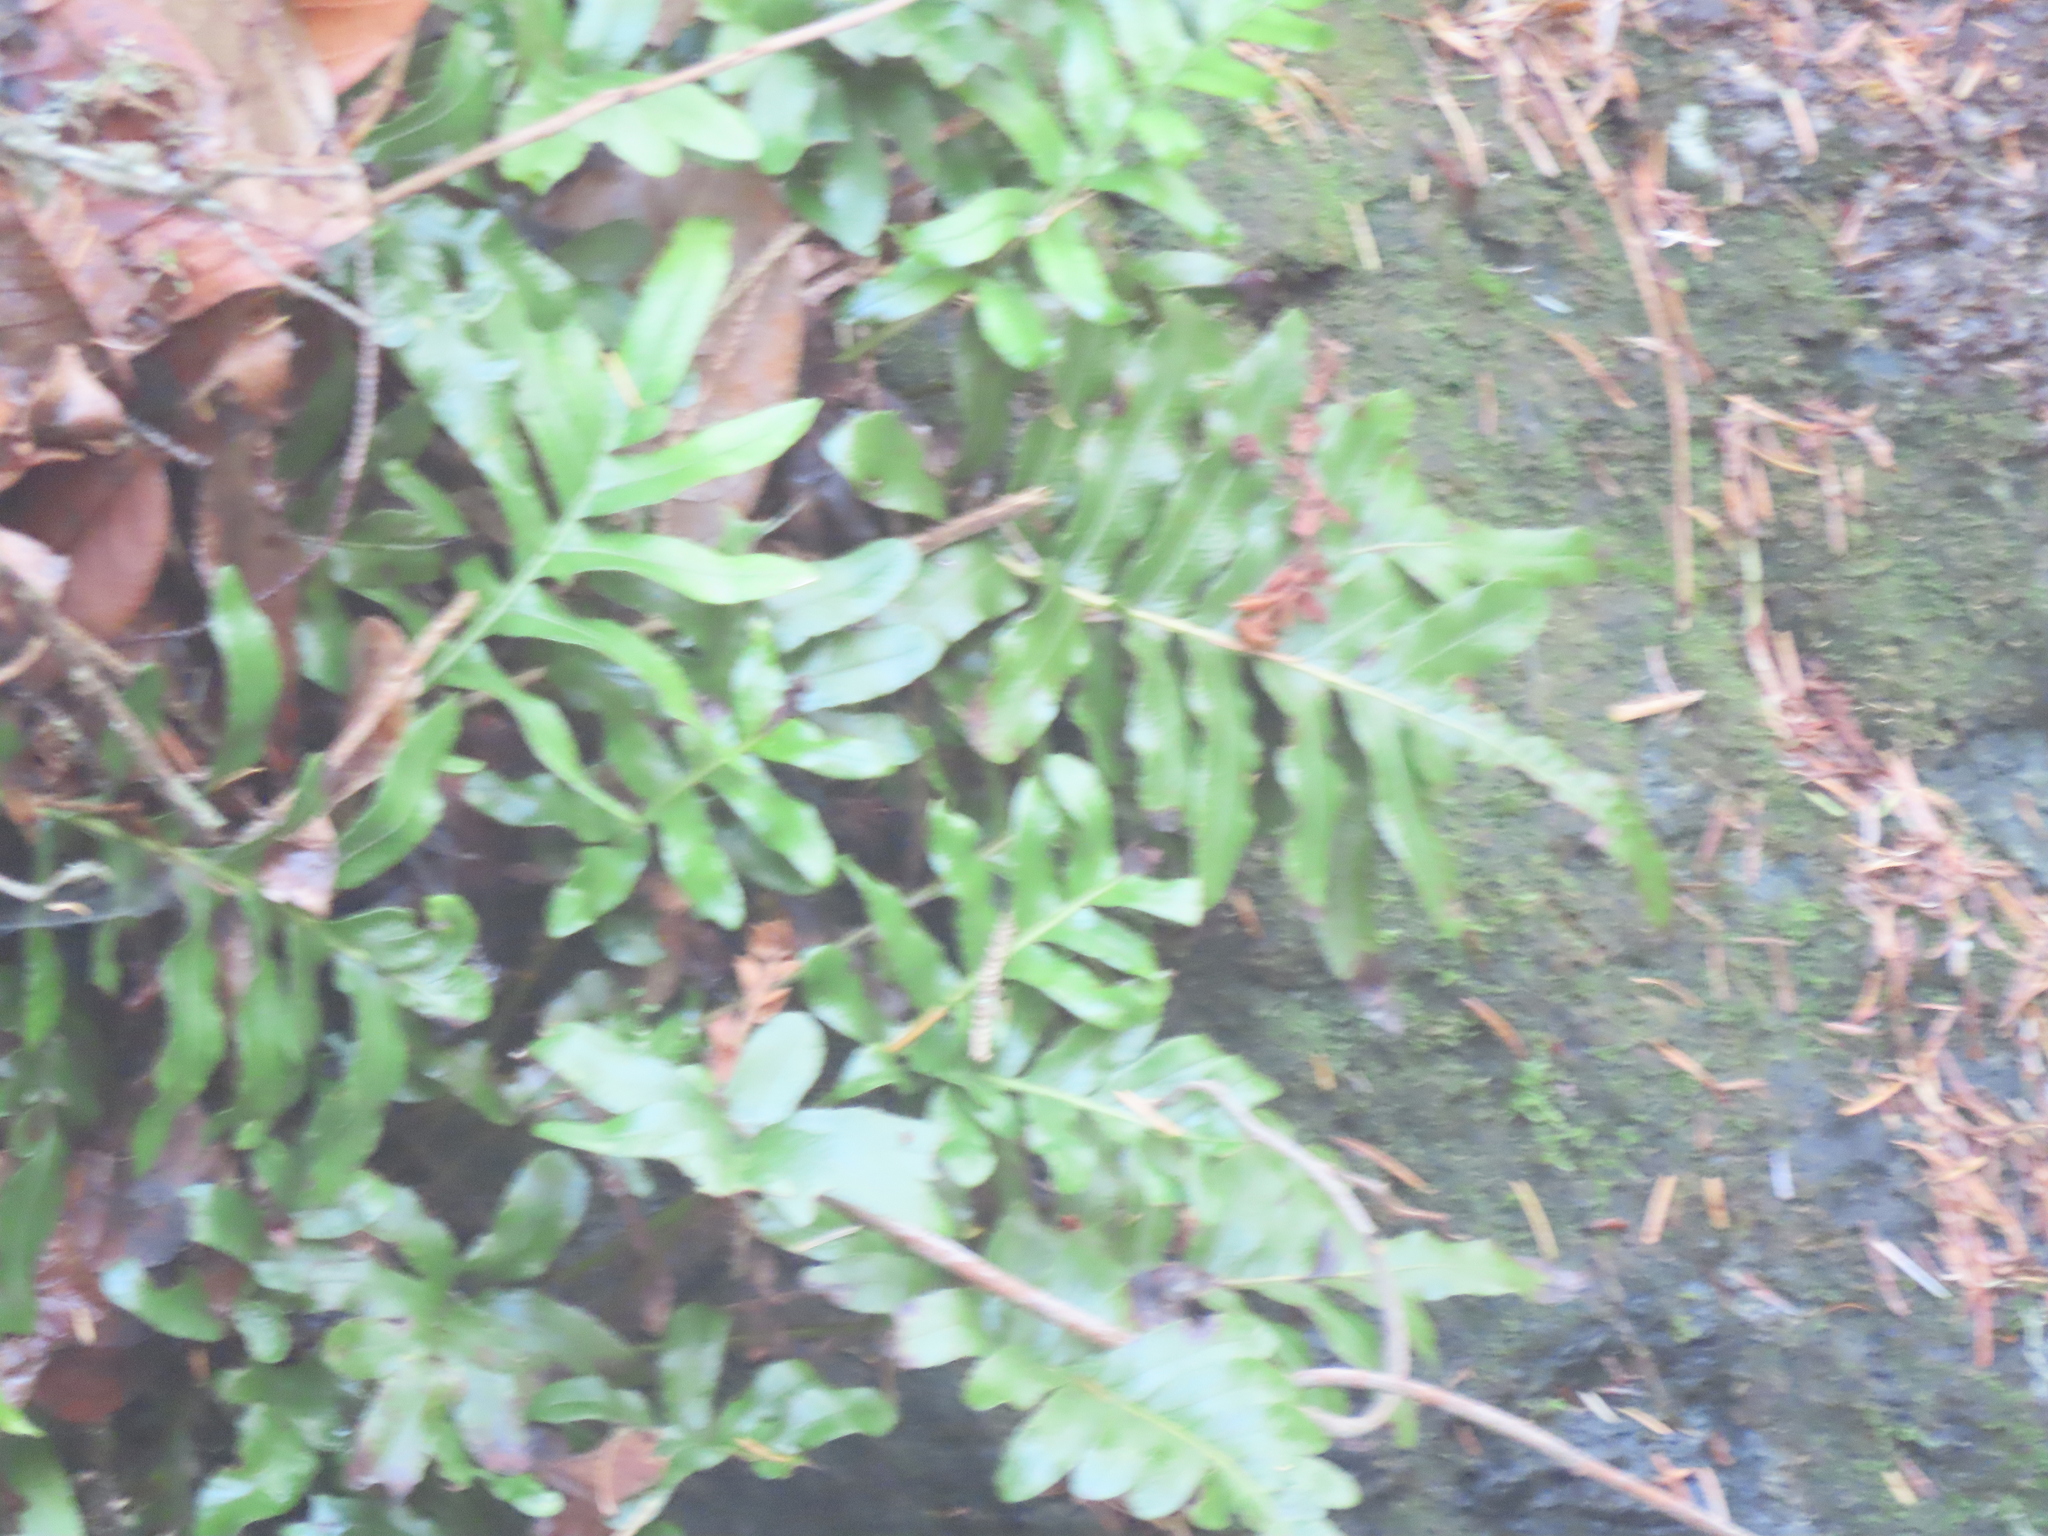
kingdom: Plantae
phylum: Tracheophyta
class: Polypodiopsida
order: Polypodiales
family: Polypodiaceae
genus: Polypodium
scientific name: Polypodium scouleri
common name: Scouler's polypody
